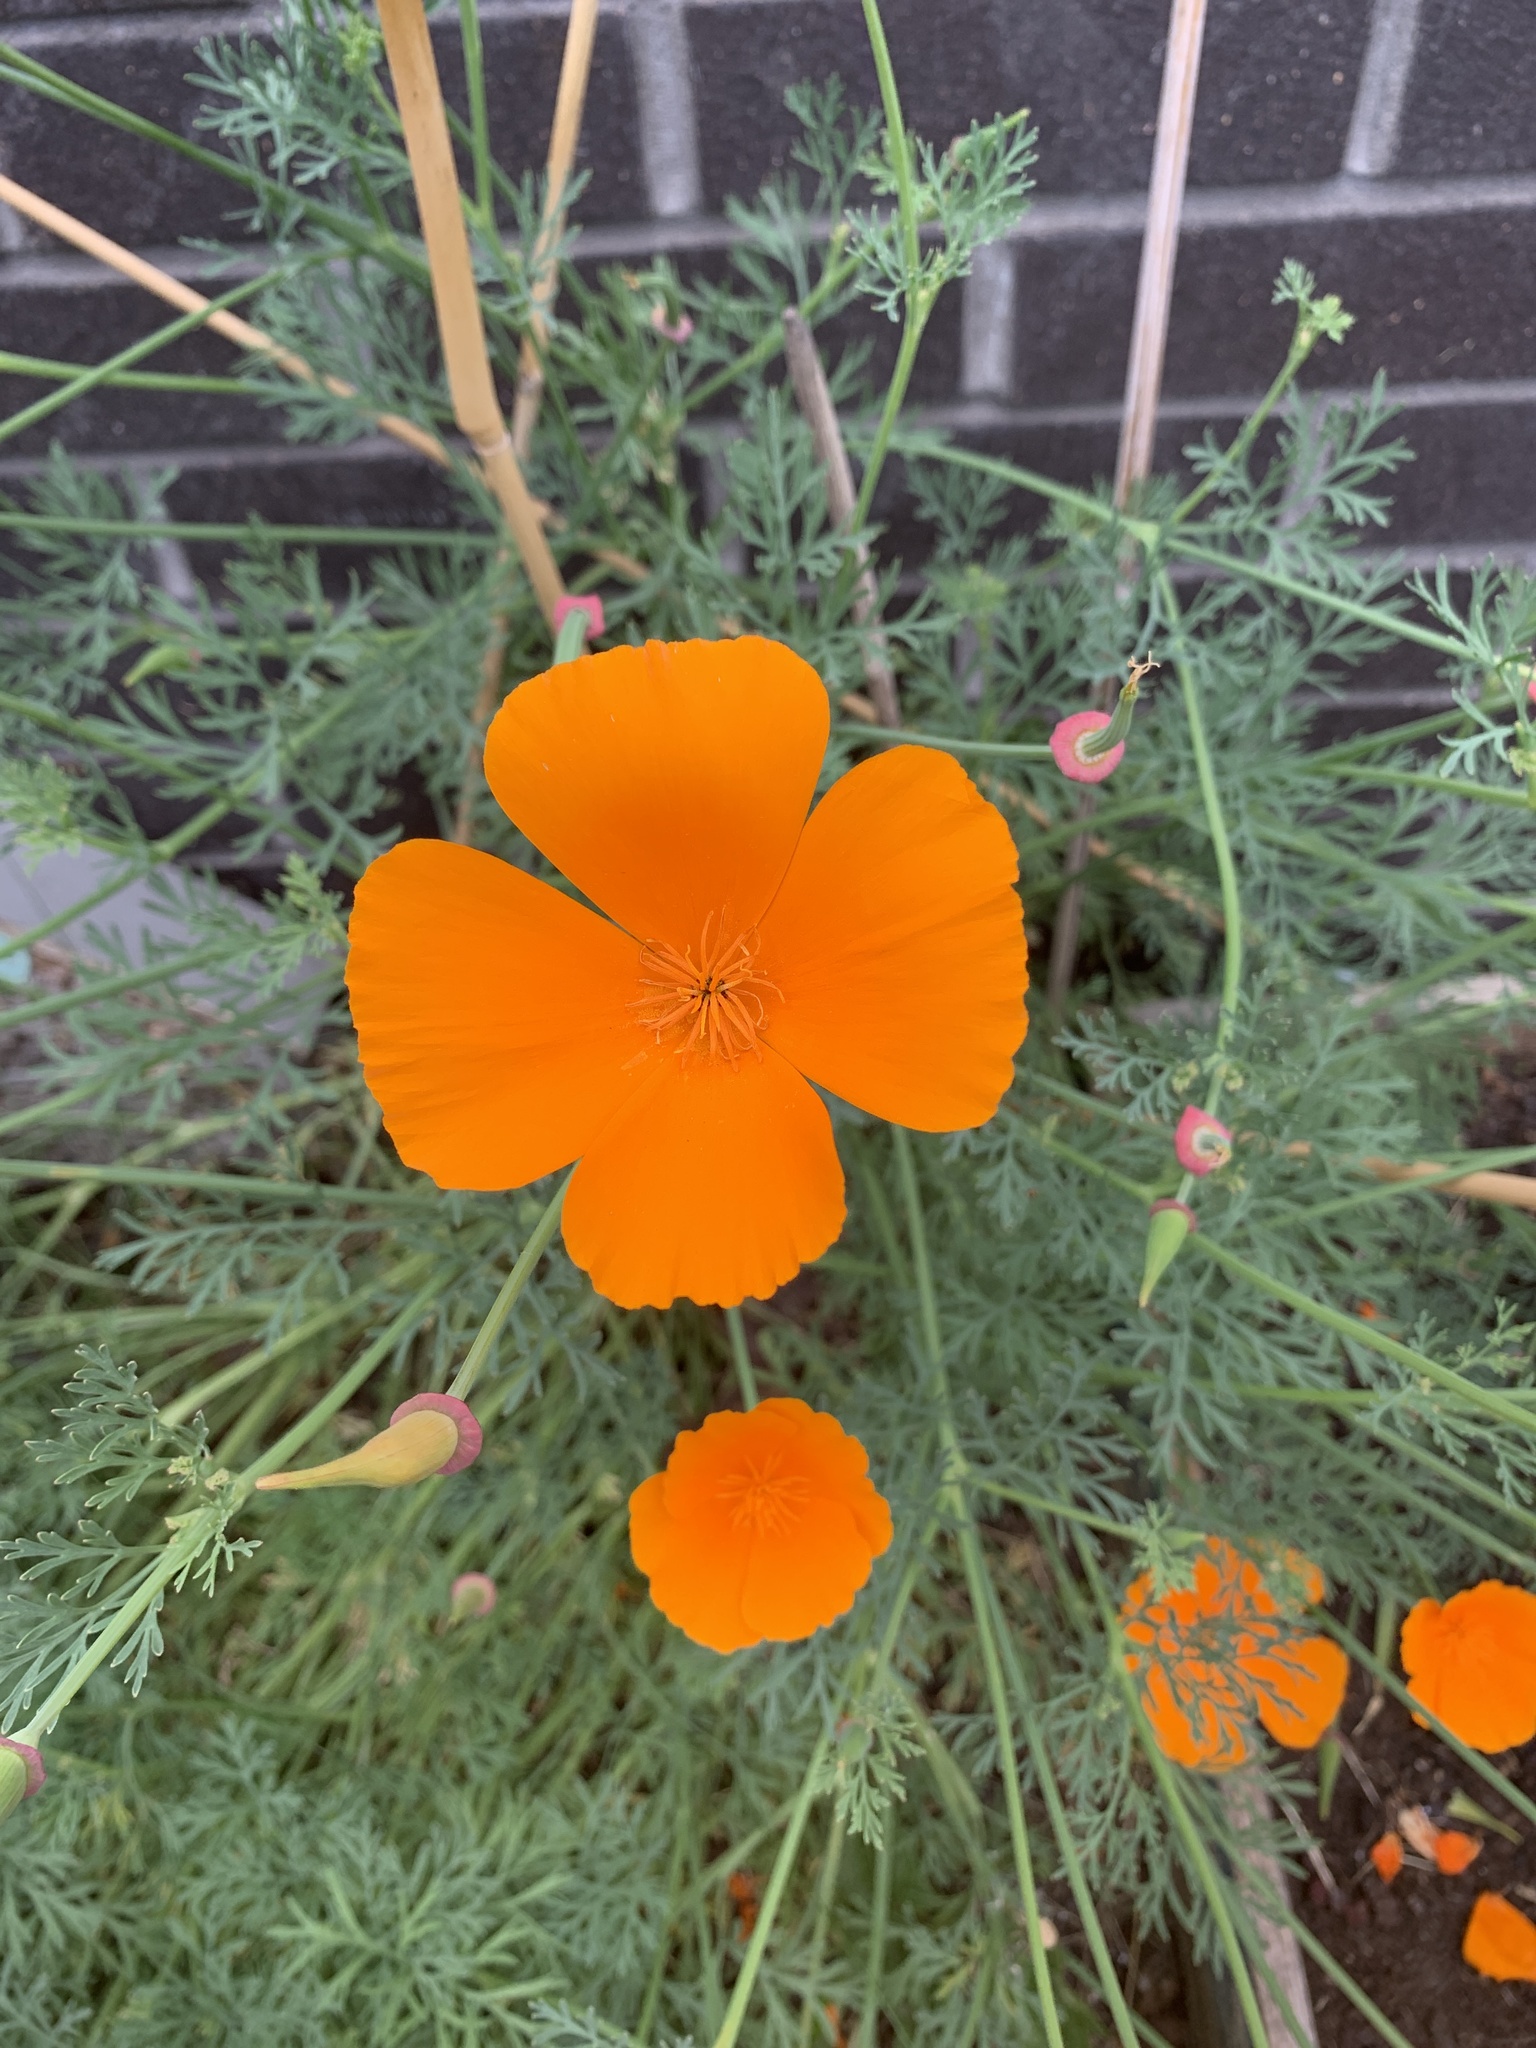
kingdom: Plantae
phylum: Tracheophyta
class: Magnoliopsida
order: Ranunculales
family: Papaveraceae
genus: Eschscholzia
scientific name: Eschscholzia californica
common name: California poppy
